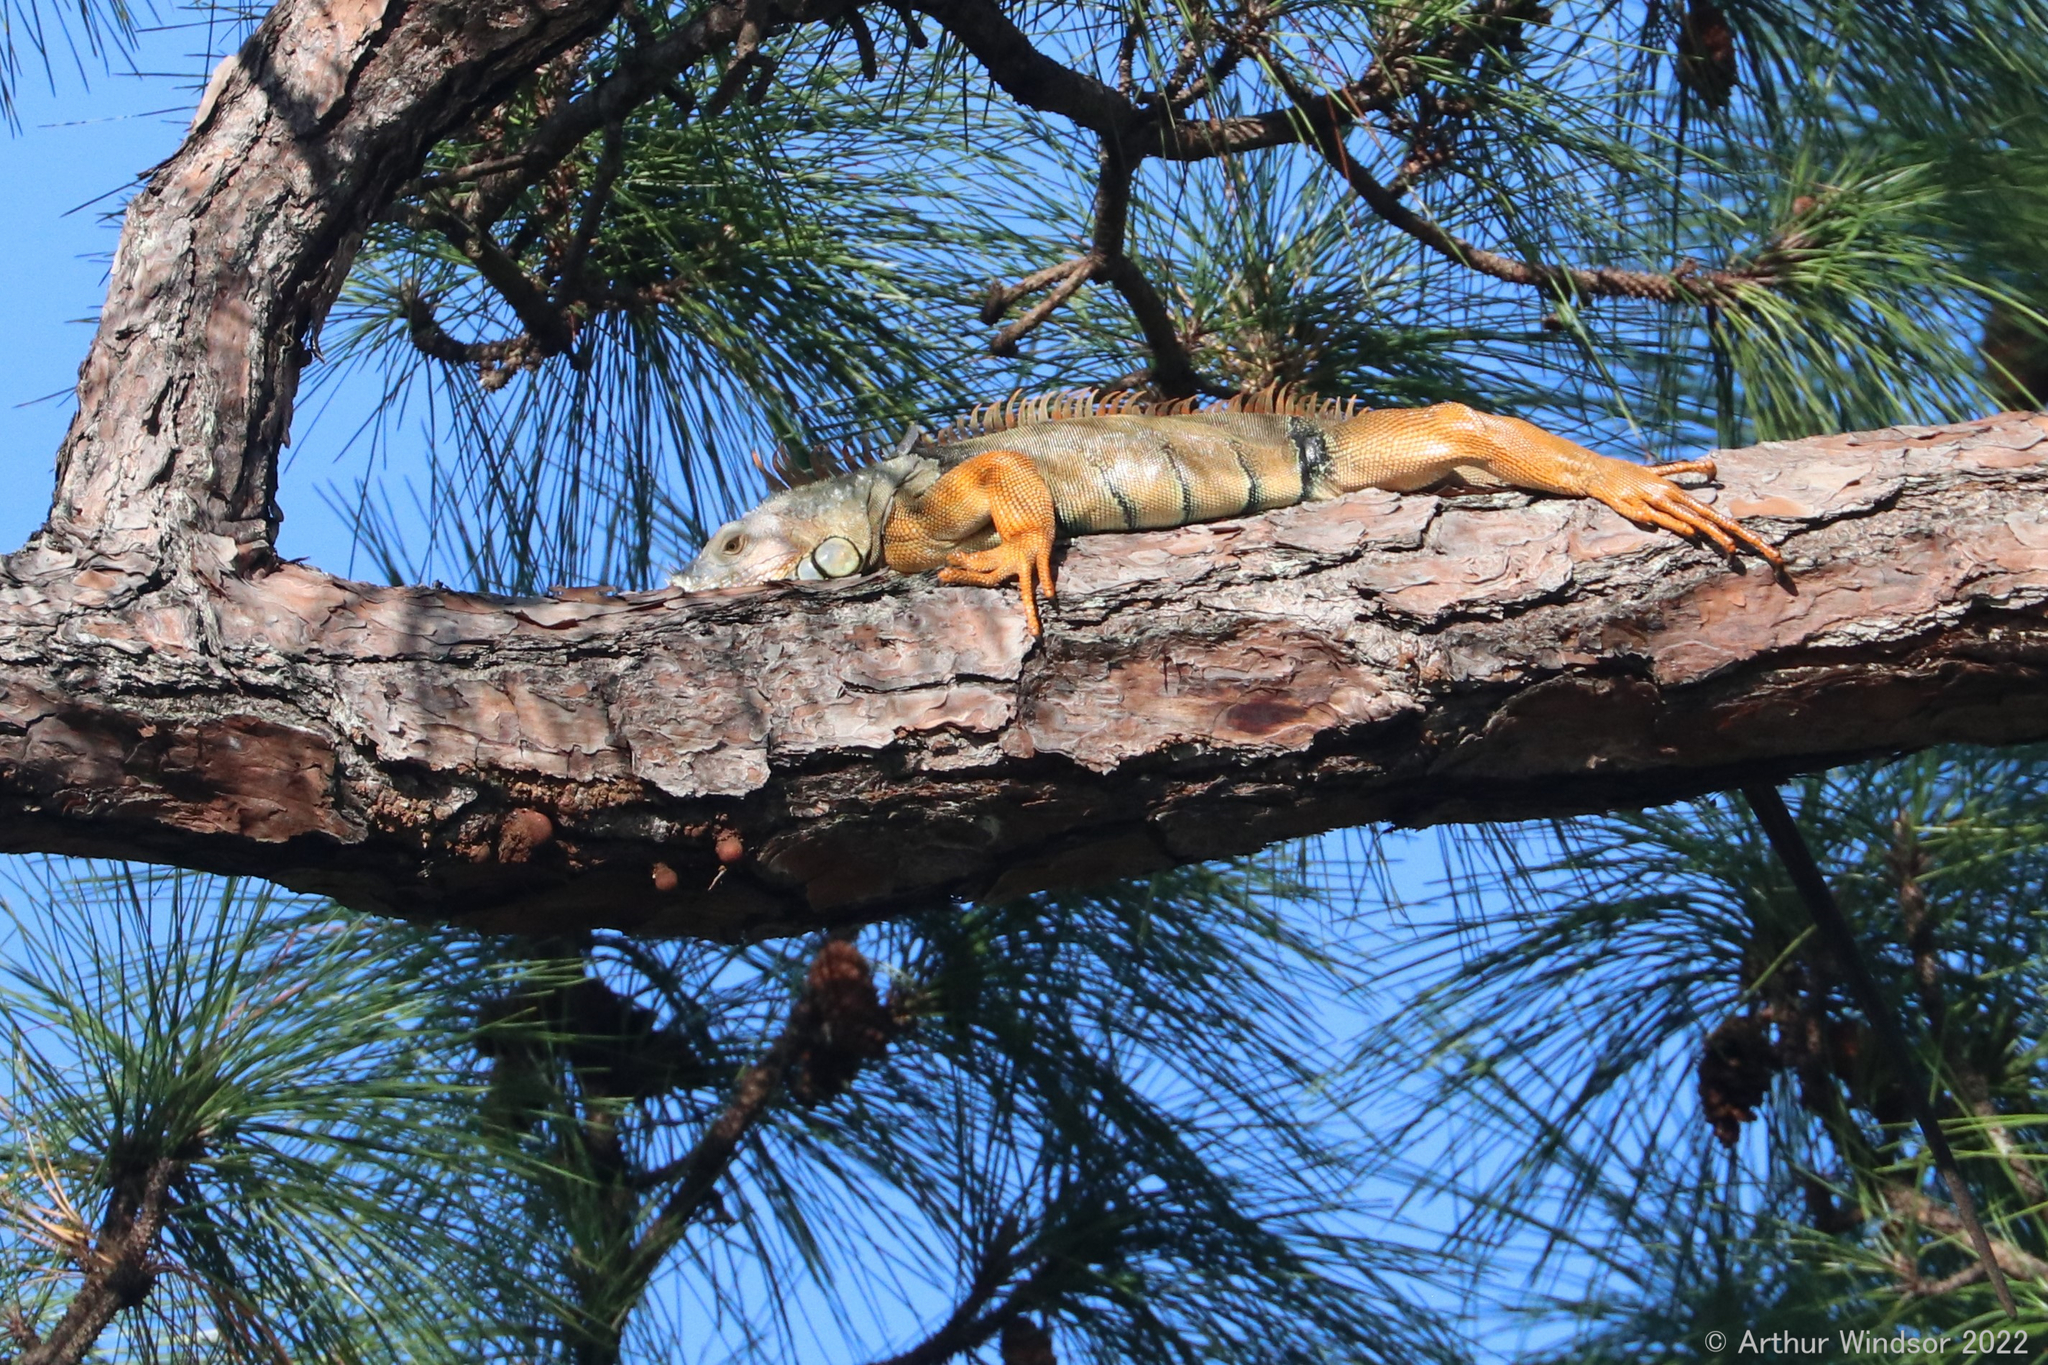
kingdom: Animalia
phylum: Chordata
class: Squamata
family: Iguanidae
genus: Iguana
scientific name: Iguana iguana
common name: Green iguana
